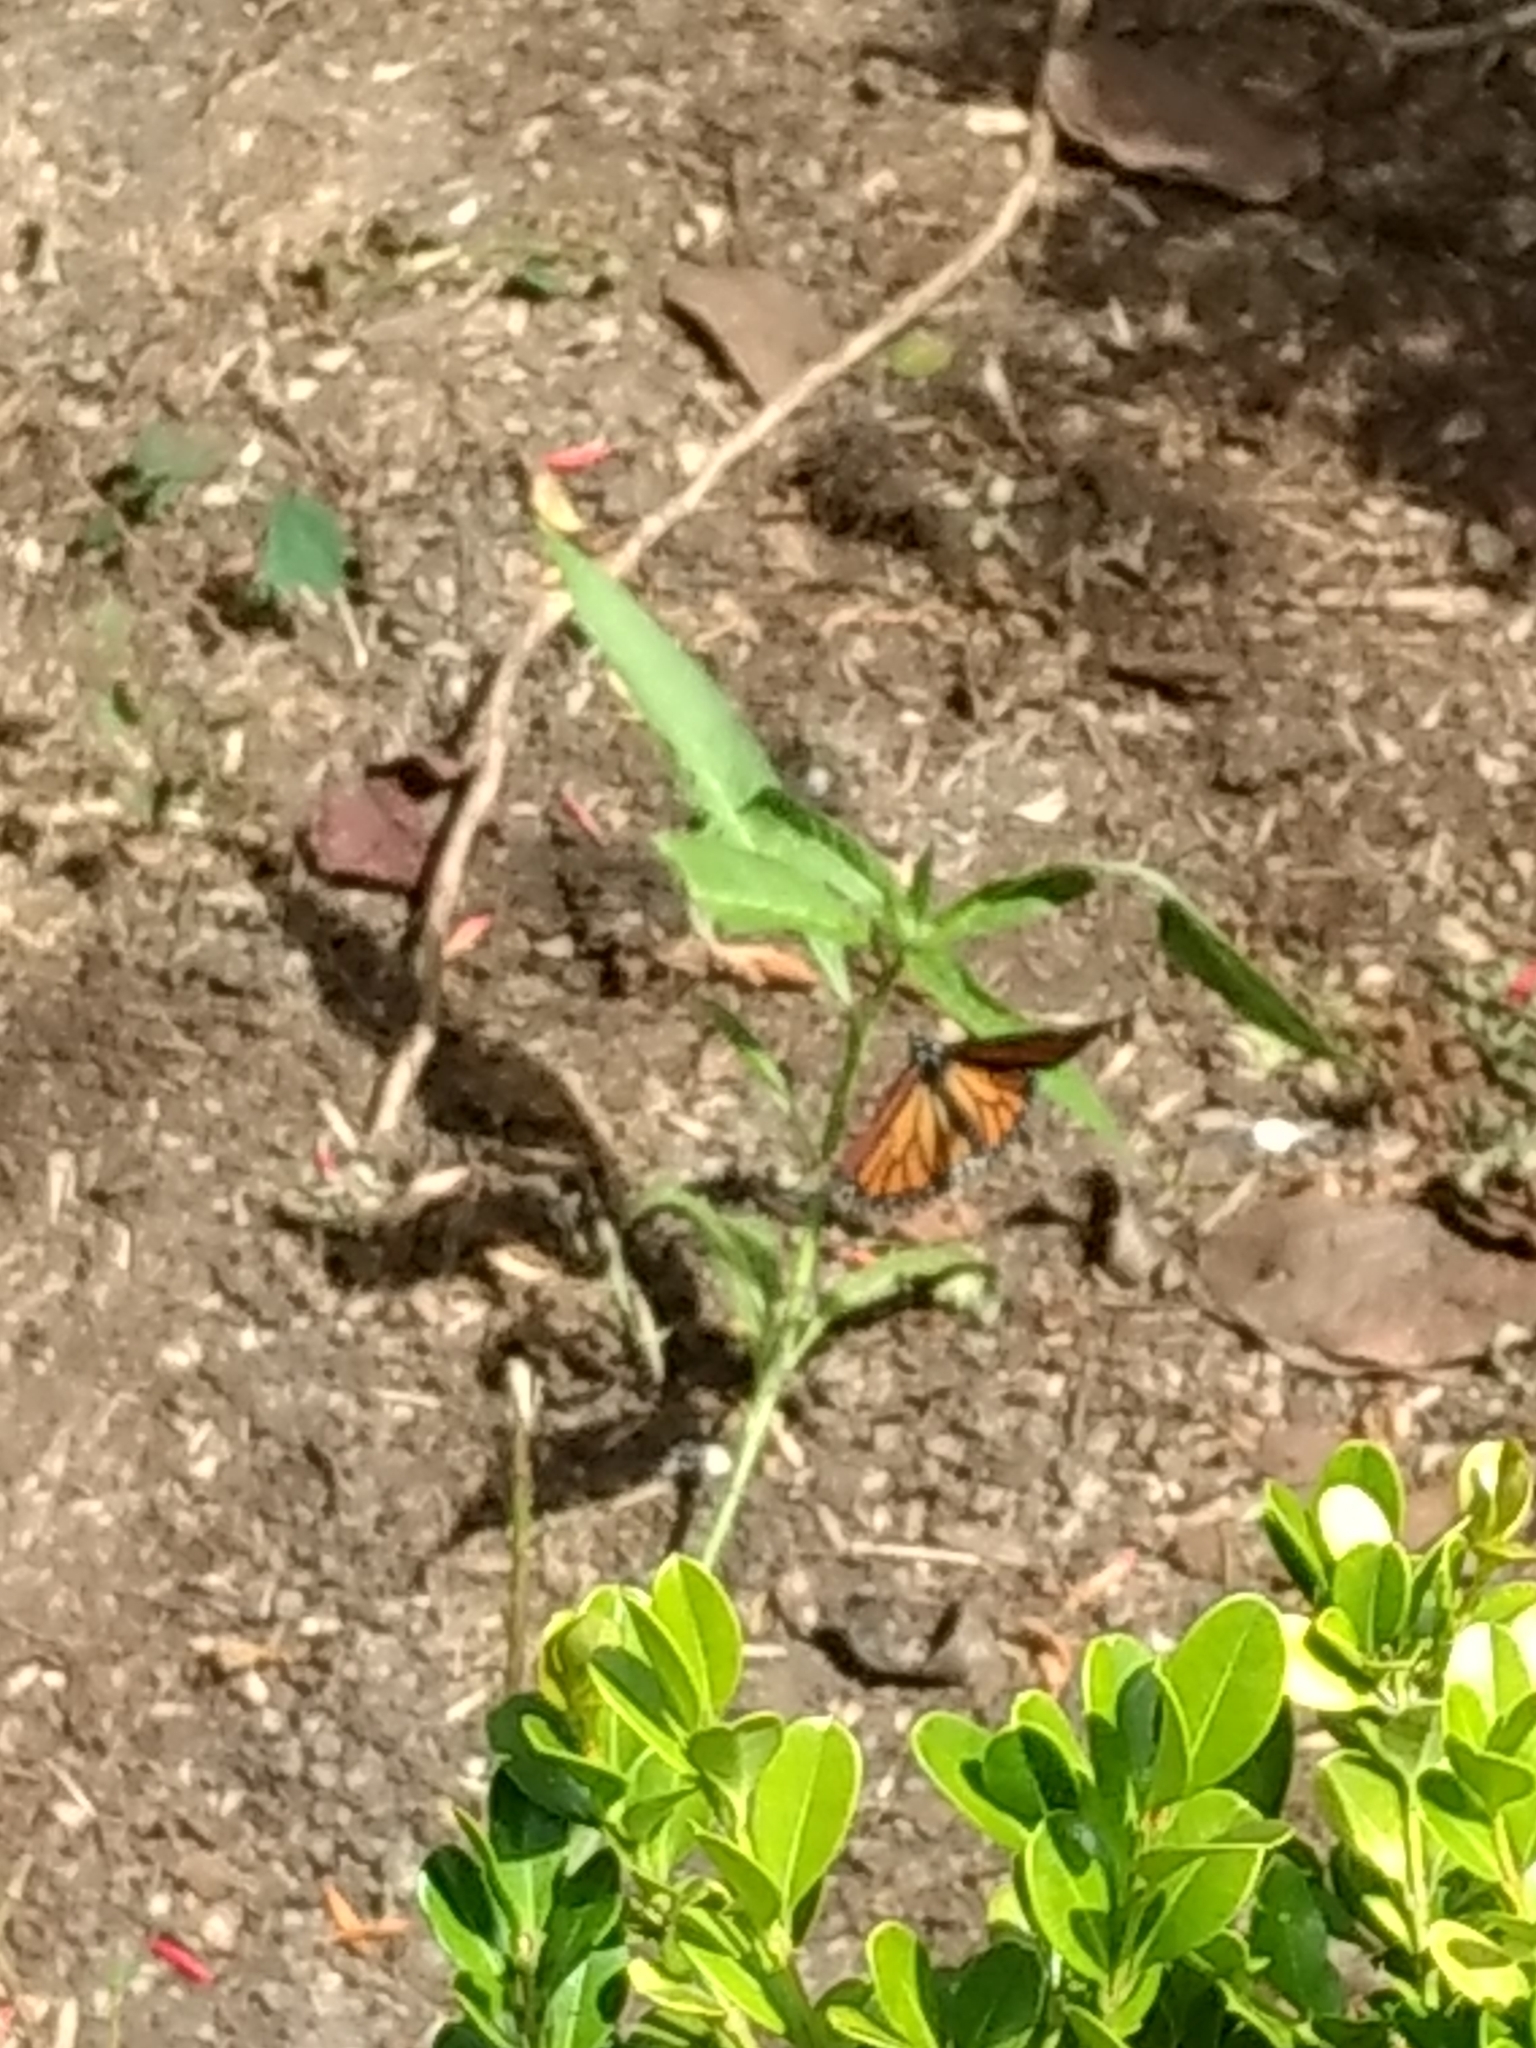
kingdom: Animalia
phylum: Arthropoda
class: Insecta
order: Lepidoptera
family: Nymphalidae
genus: Danaus
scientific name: Danaus plexippus
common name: Monarch
